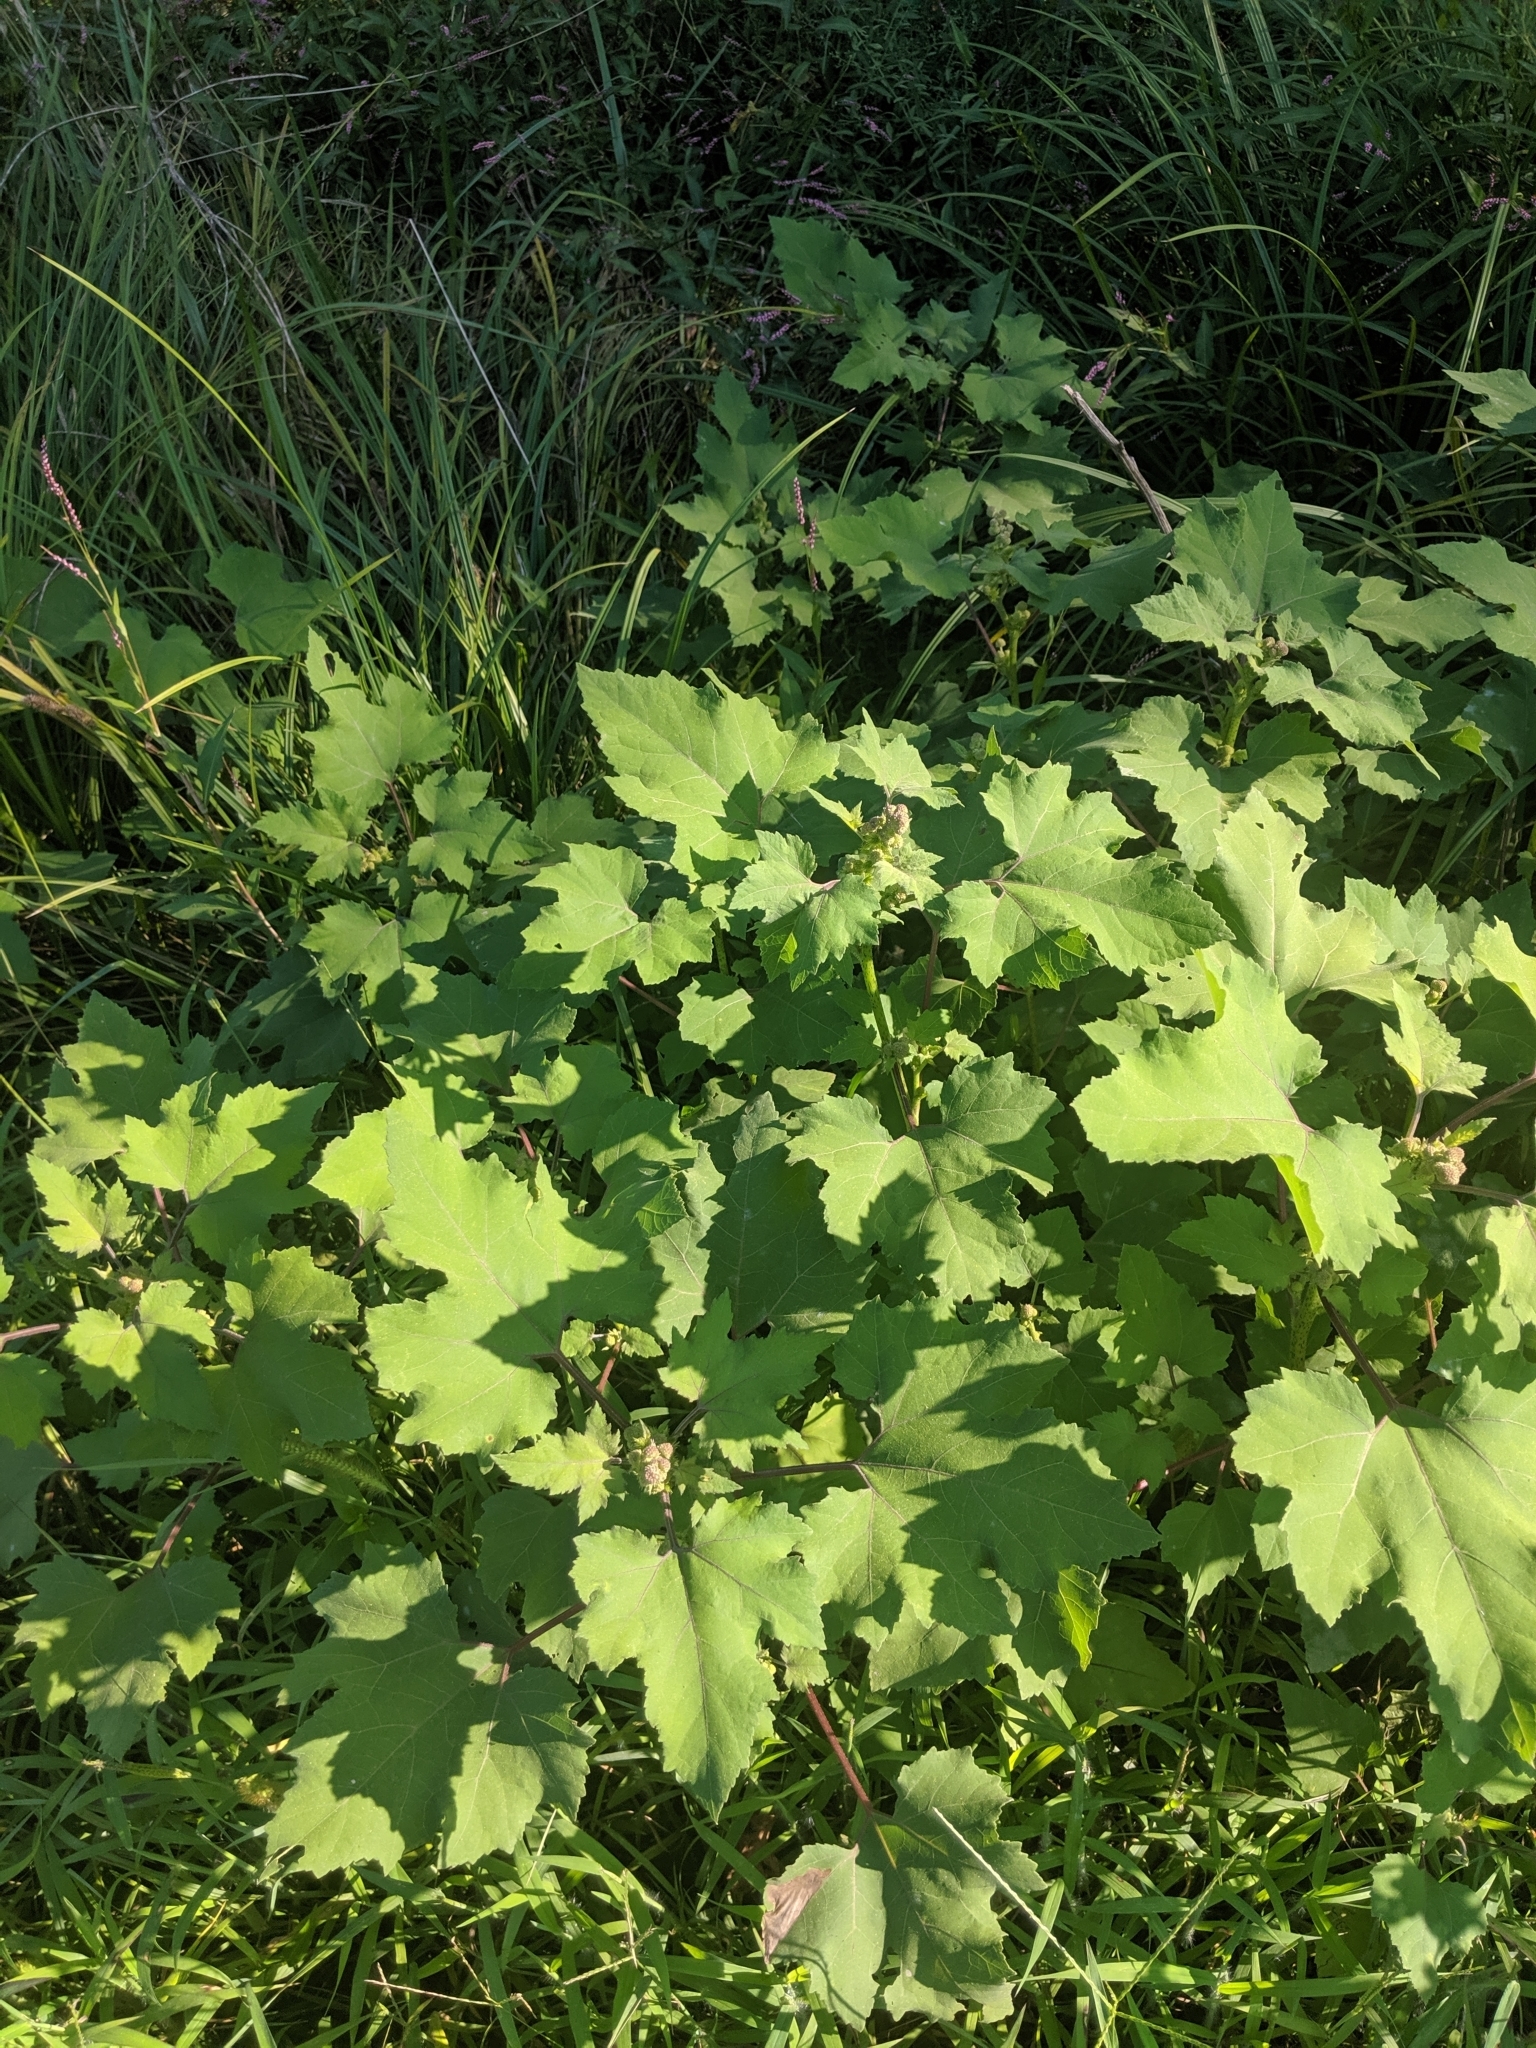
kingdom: Plantae
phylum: Tracheophyta
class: Magnoliopsida
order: Asterales
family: Asteraceae
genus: Xanthium
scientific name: Xanthium strumarium
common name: Rough cocklebur
